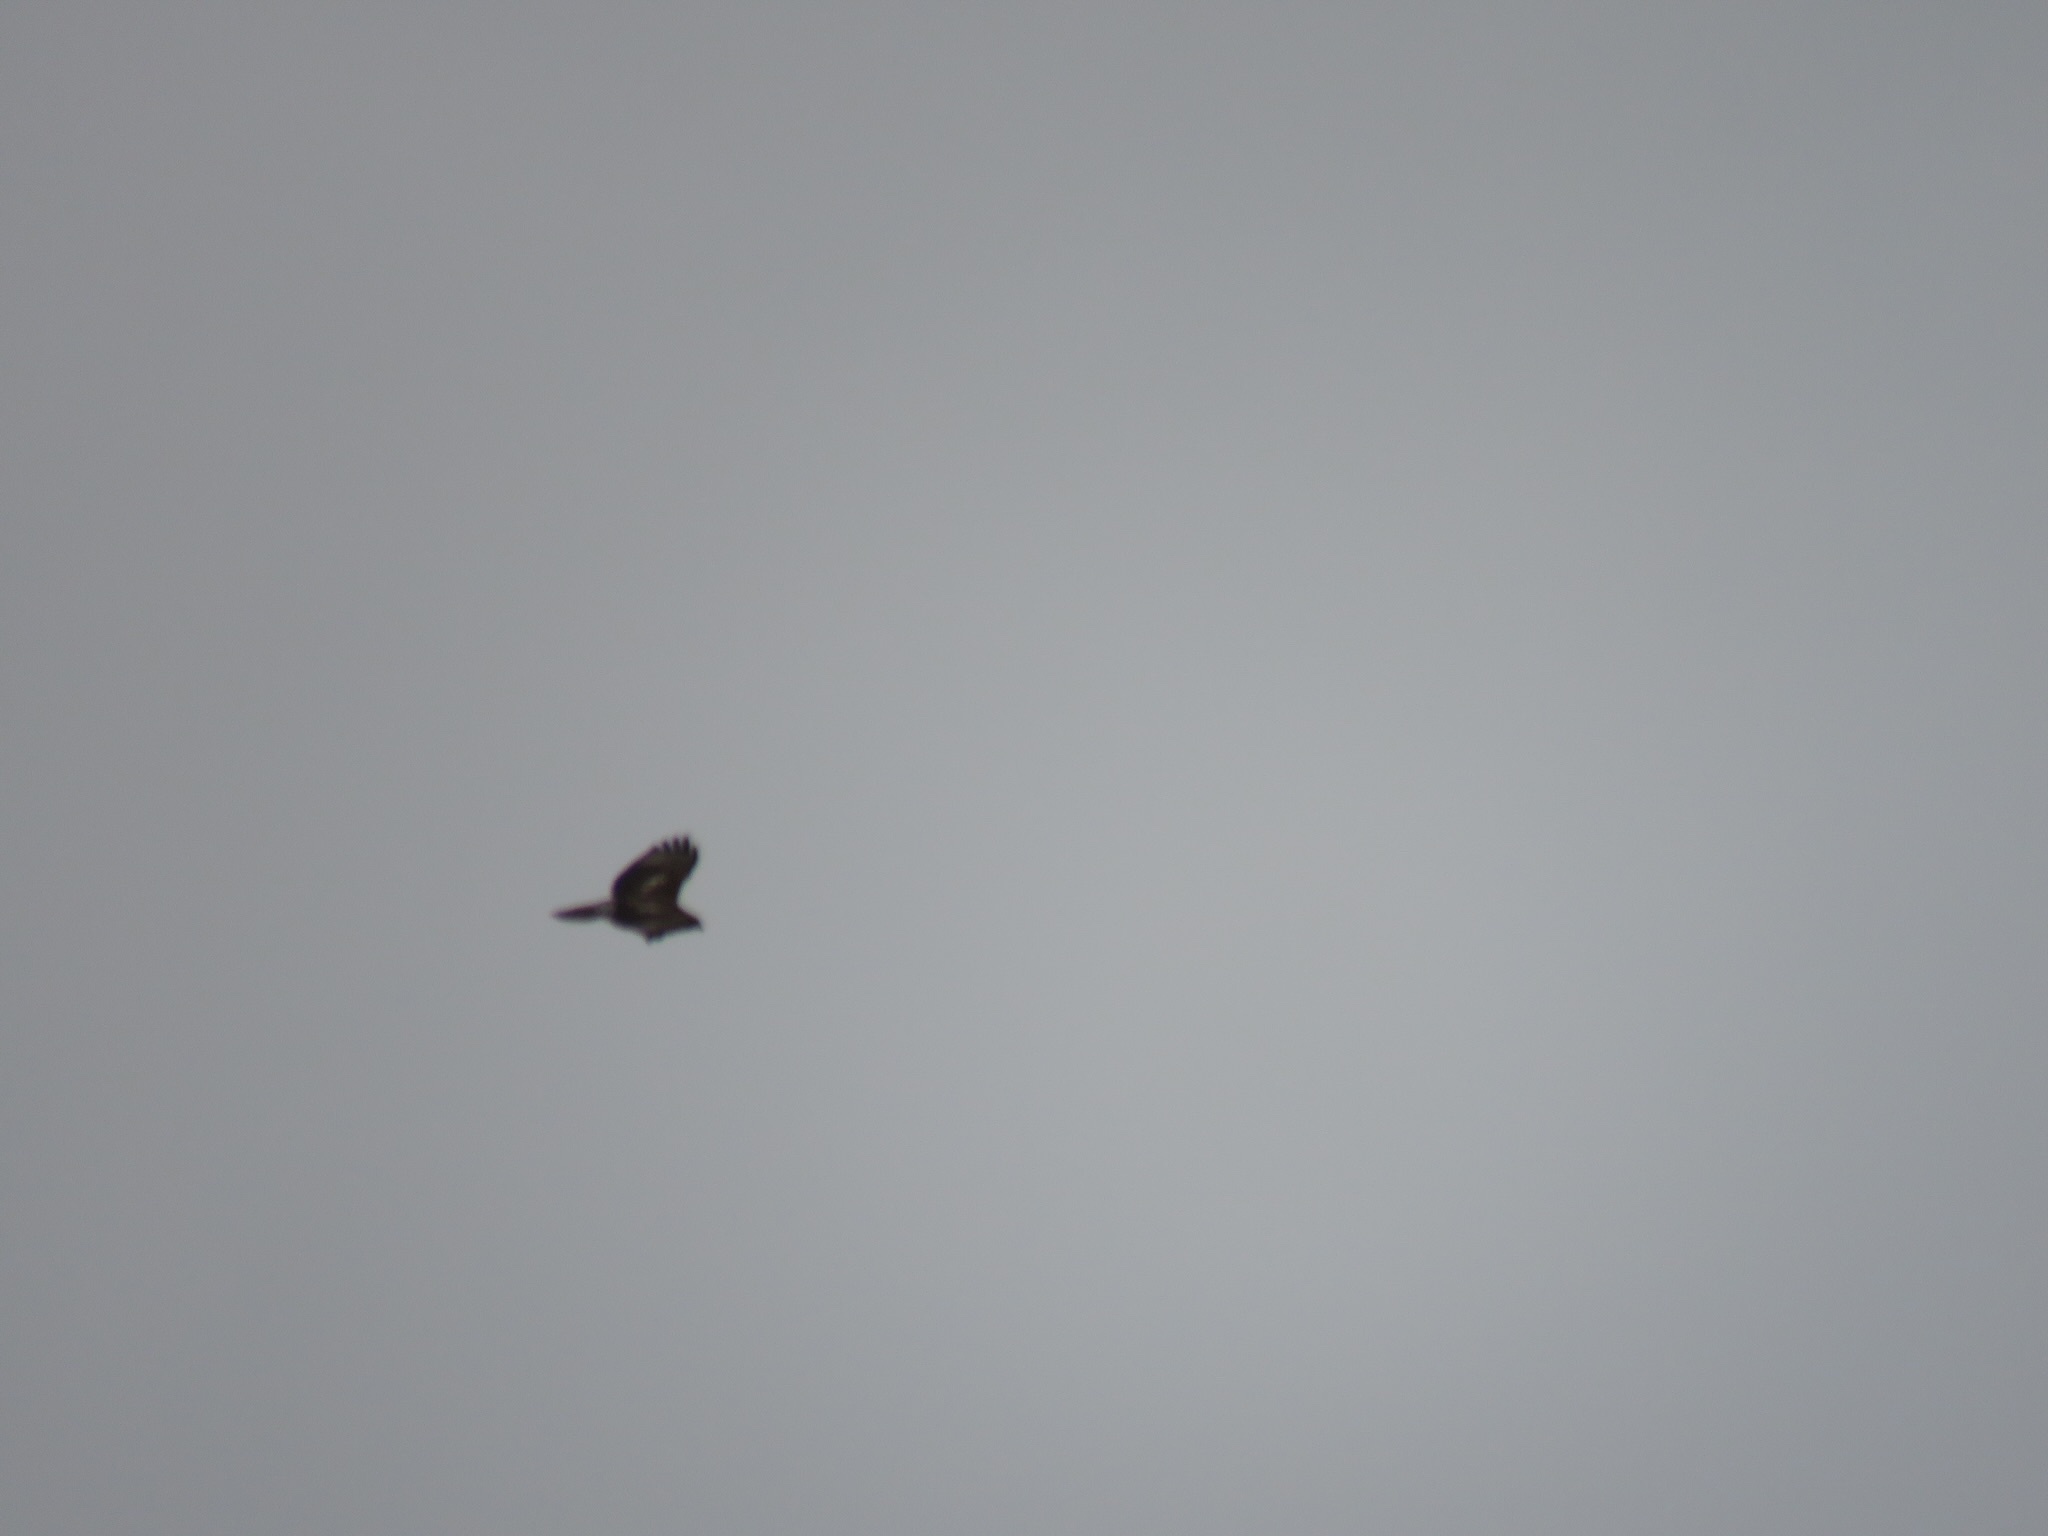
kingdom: Animalia
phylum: Chordata
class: Aves
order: Accipitriformes
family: Accipitridae
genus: Buteo
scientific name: Buteo jamaicensis
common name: Red-tailed hawk
